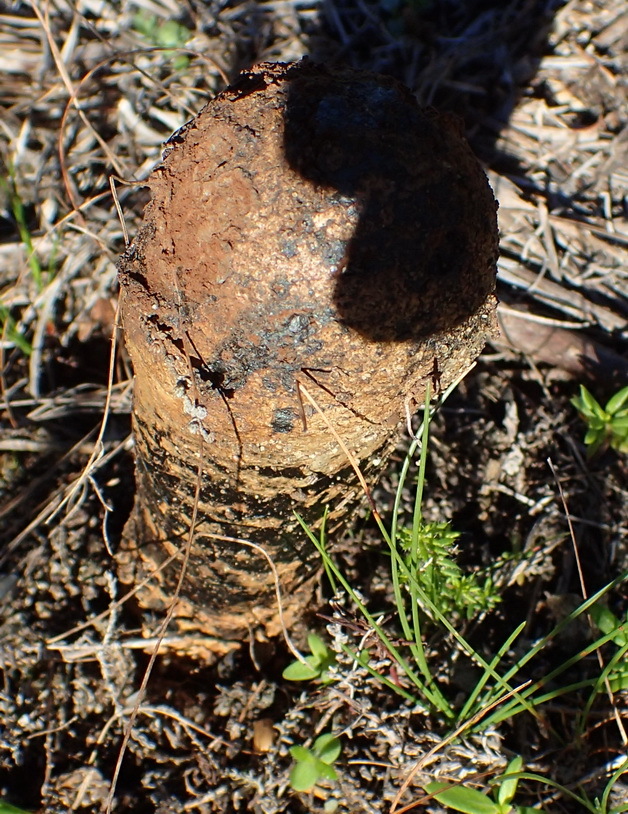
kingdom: Fungi
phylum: Basidiomycota
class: Agaricomycetes
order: Boletales
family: Sclerodermataceae
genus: Pisolithus
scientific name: Pisolithus tinctorius
